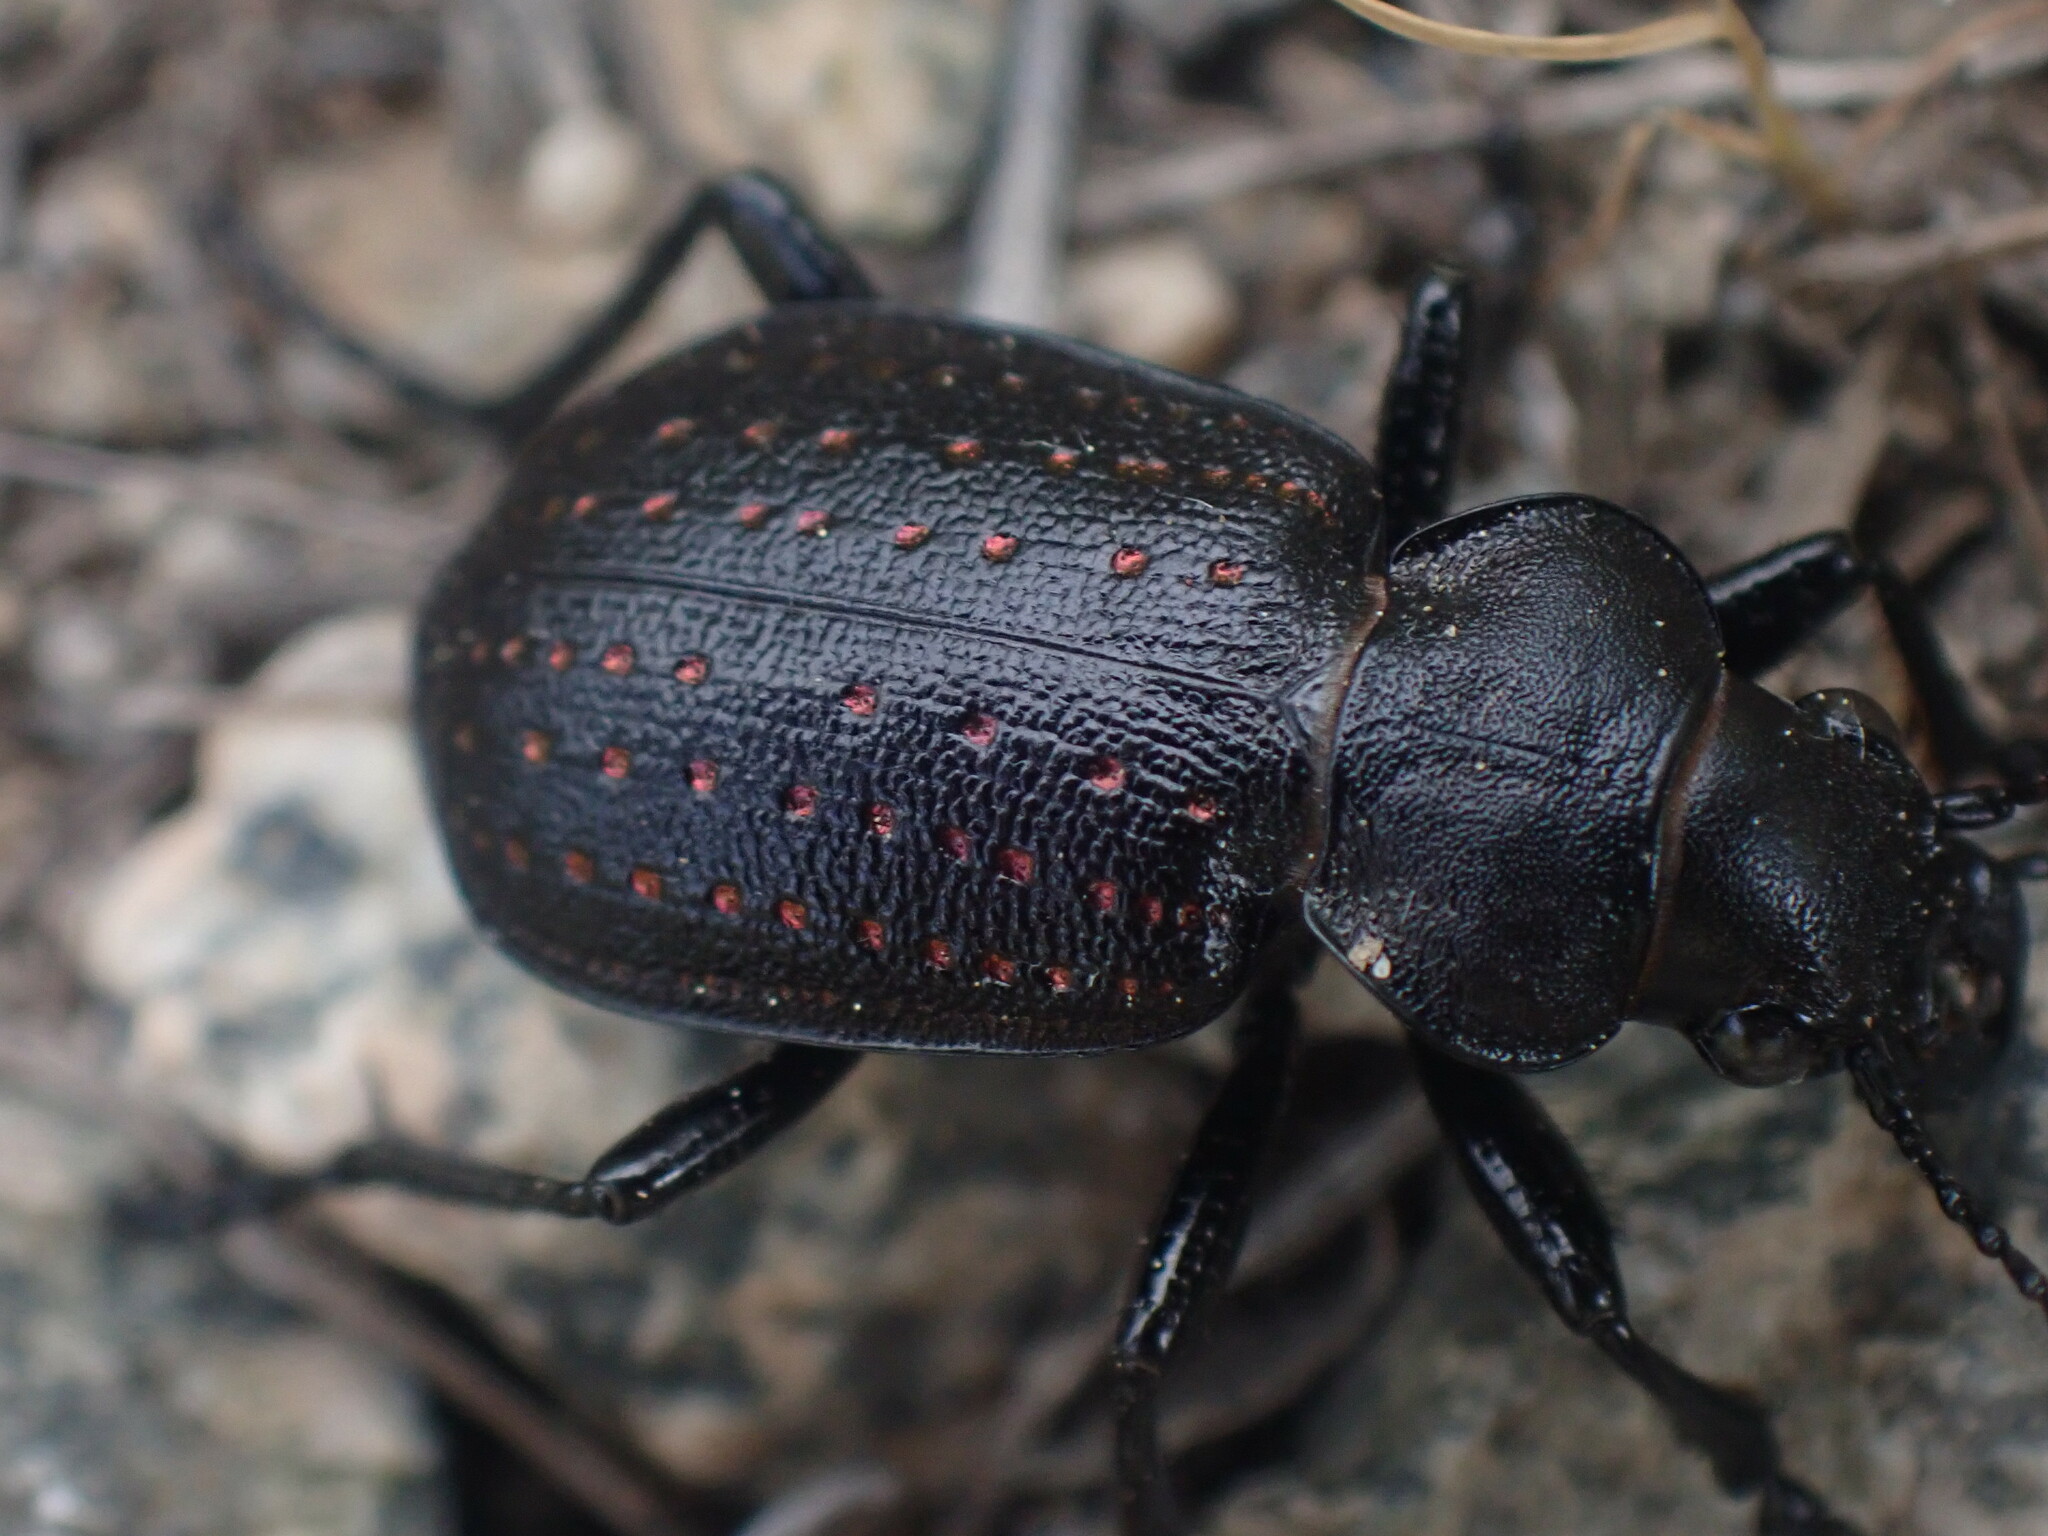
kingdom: Animalia
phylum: Arthropoda
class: Insecta
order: Coleoptera
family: Carabidae
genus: Calosoma
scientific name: Calosoma tepidum
